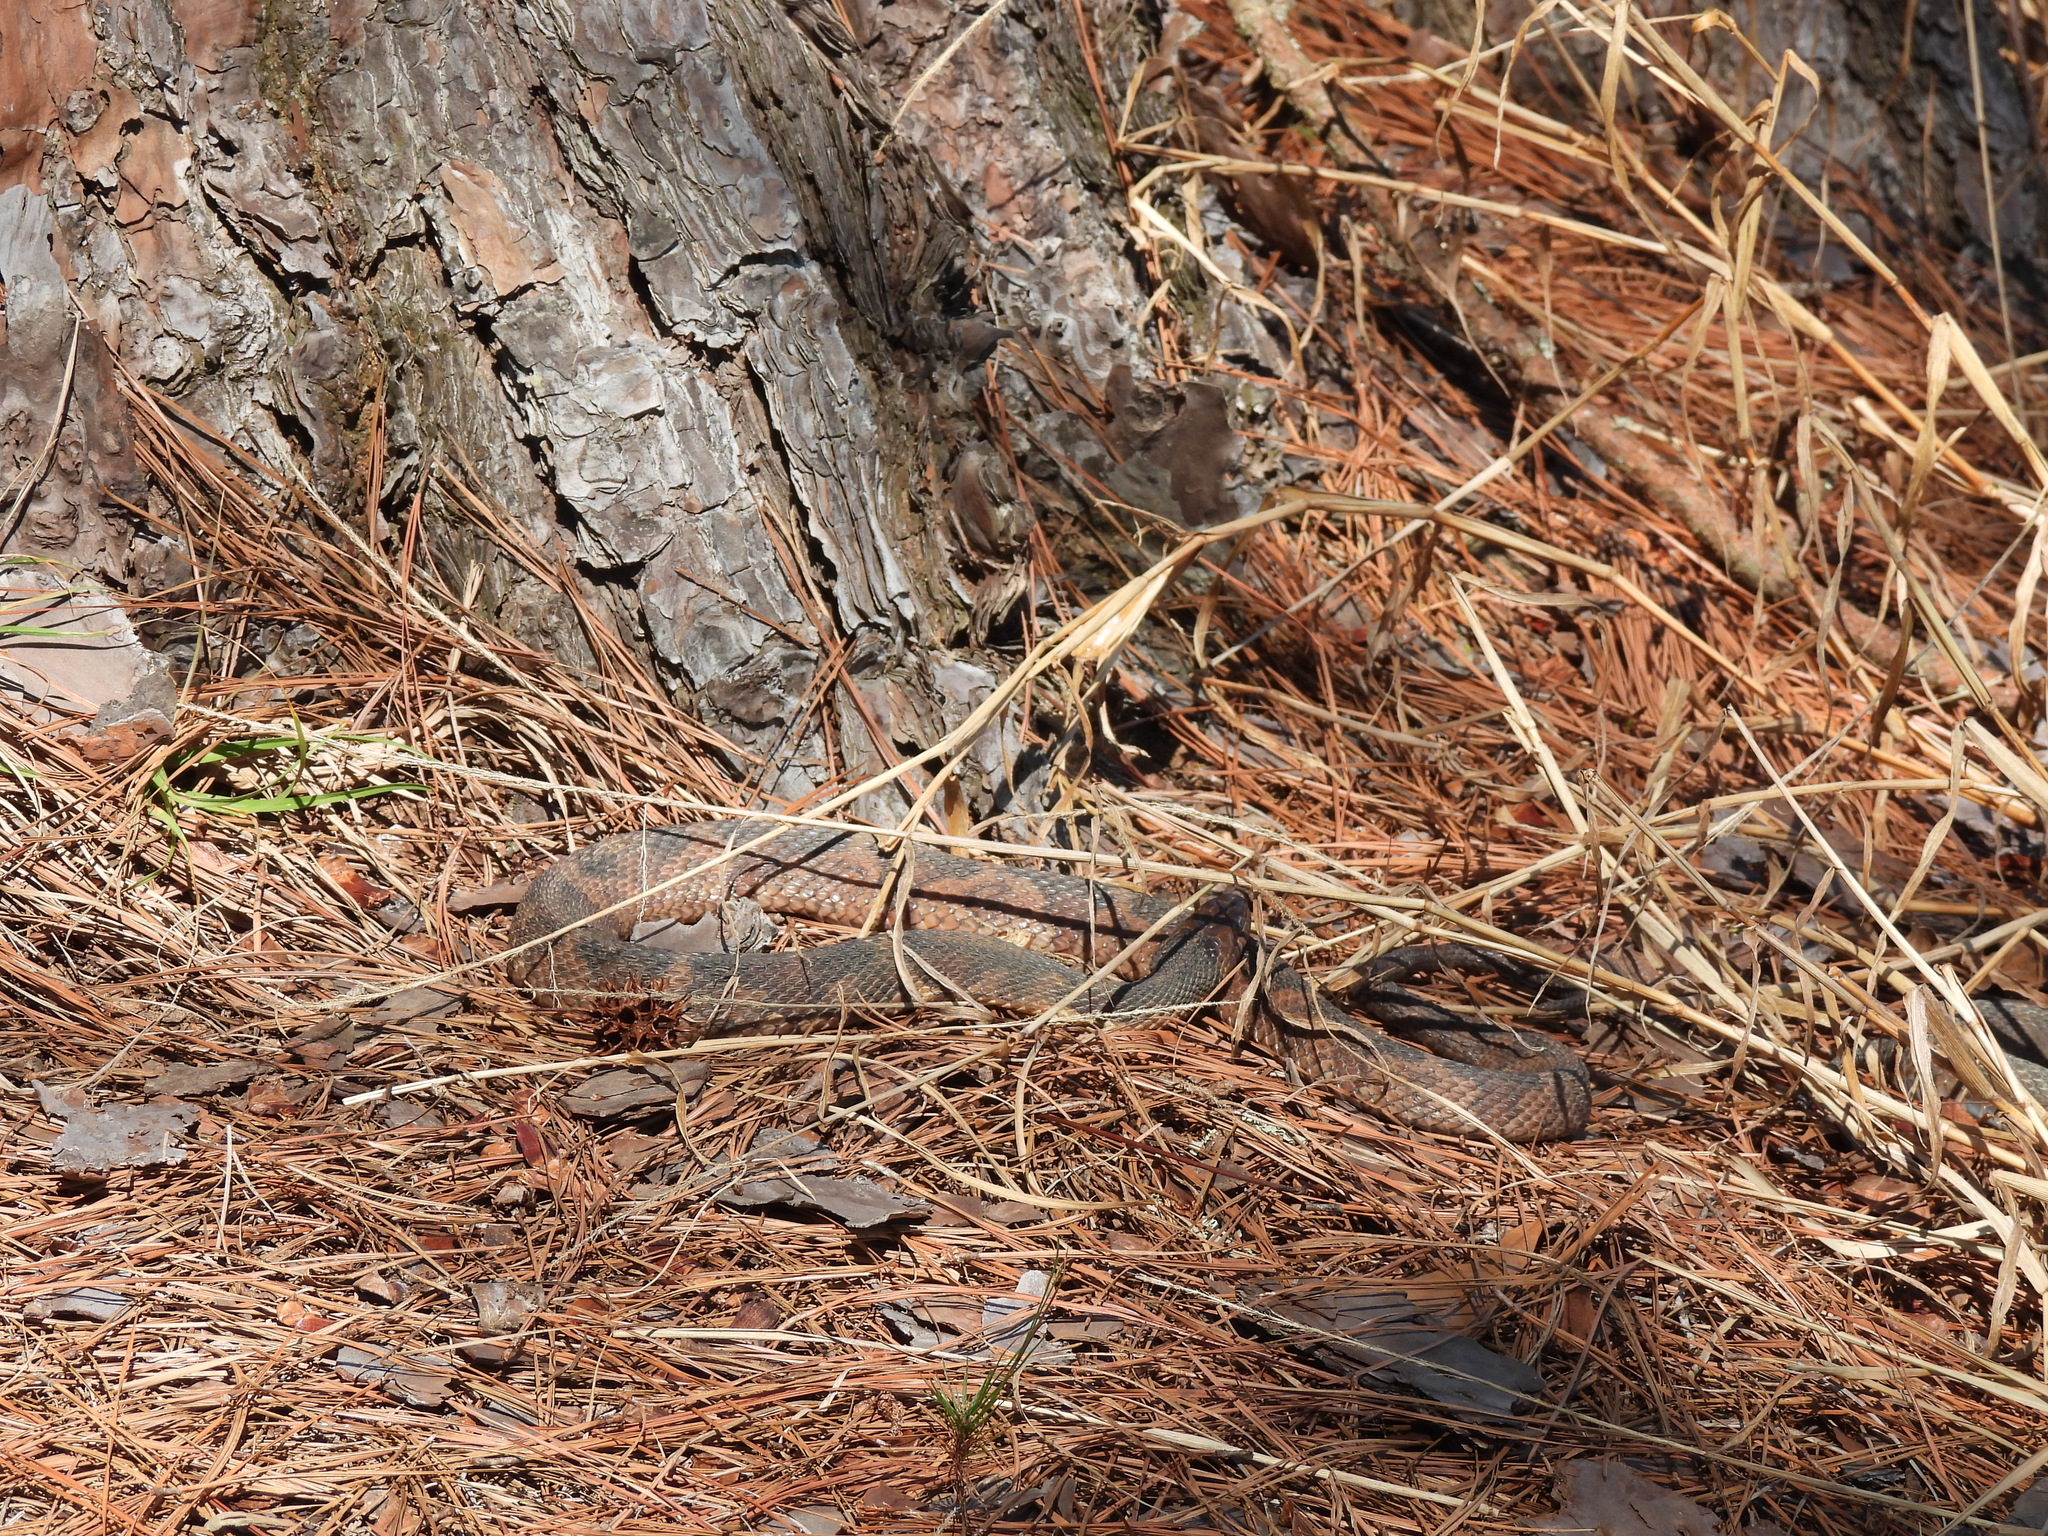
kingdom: Animalia
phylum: Chordata
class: Squamata
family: Colubridae
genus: Nerodia
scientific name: Nerodia fasciata
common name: Southern water snake
